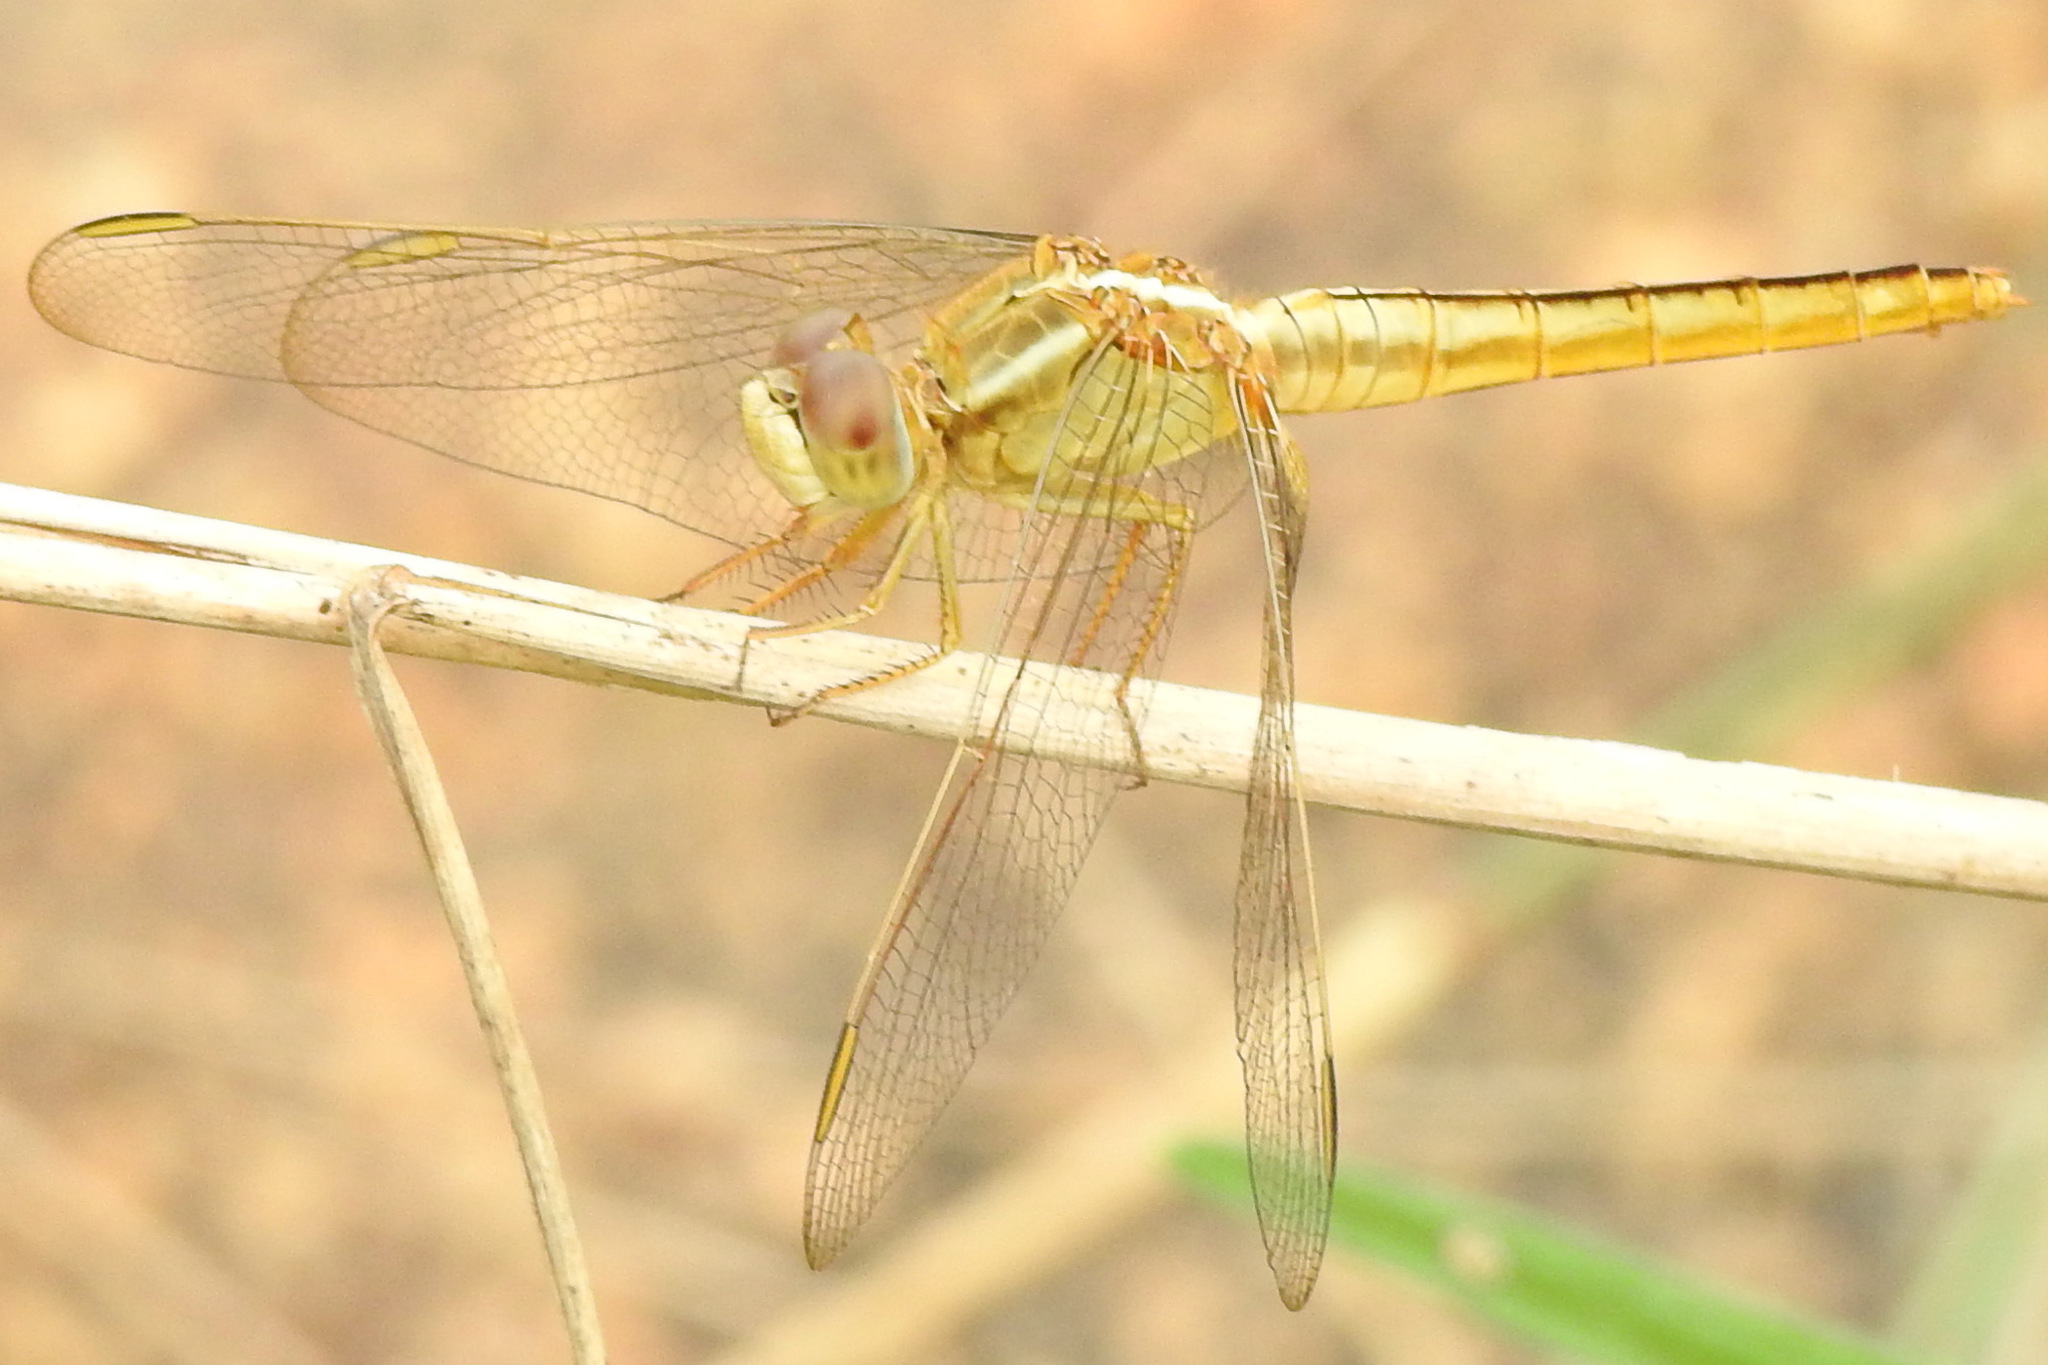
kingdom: Animalia
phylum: Arthropoda
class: Insecta
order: Odonata
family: Libellulidae
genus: Crocothemis
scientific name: Crocothemis servilia
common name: Scarlet skimmer
